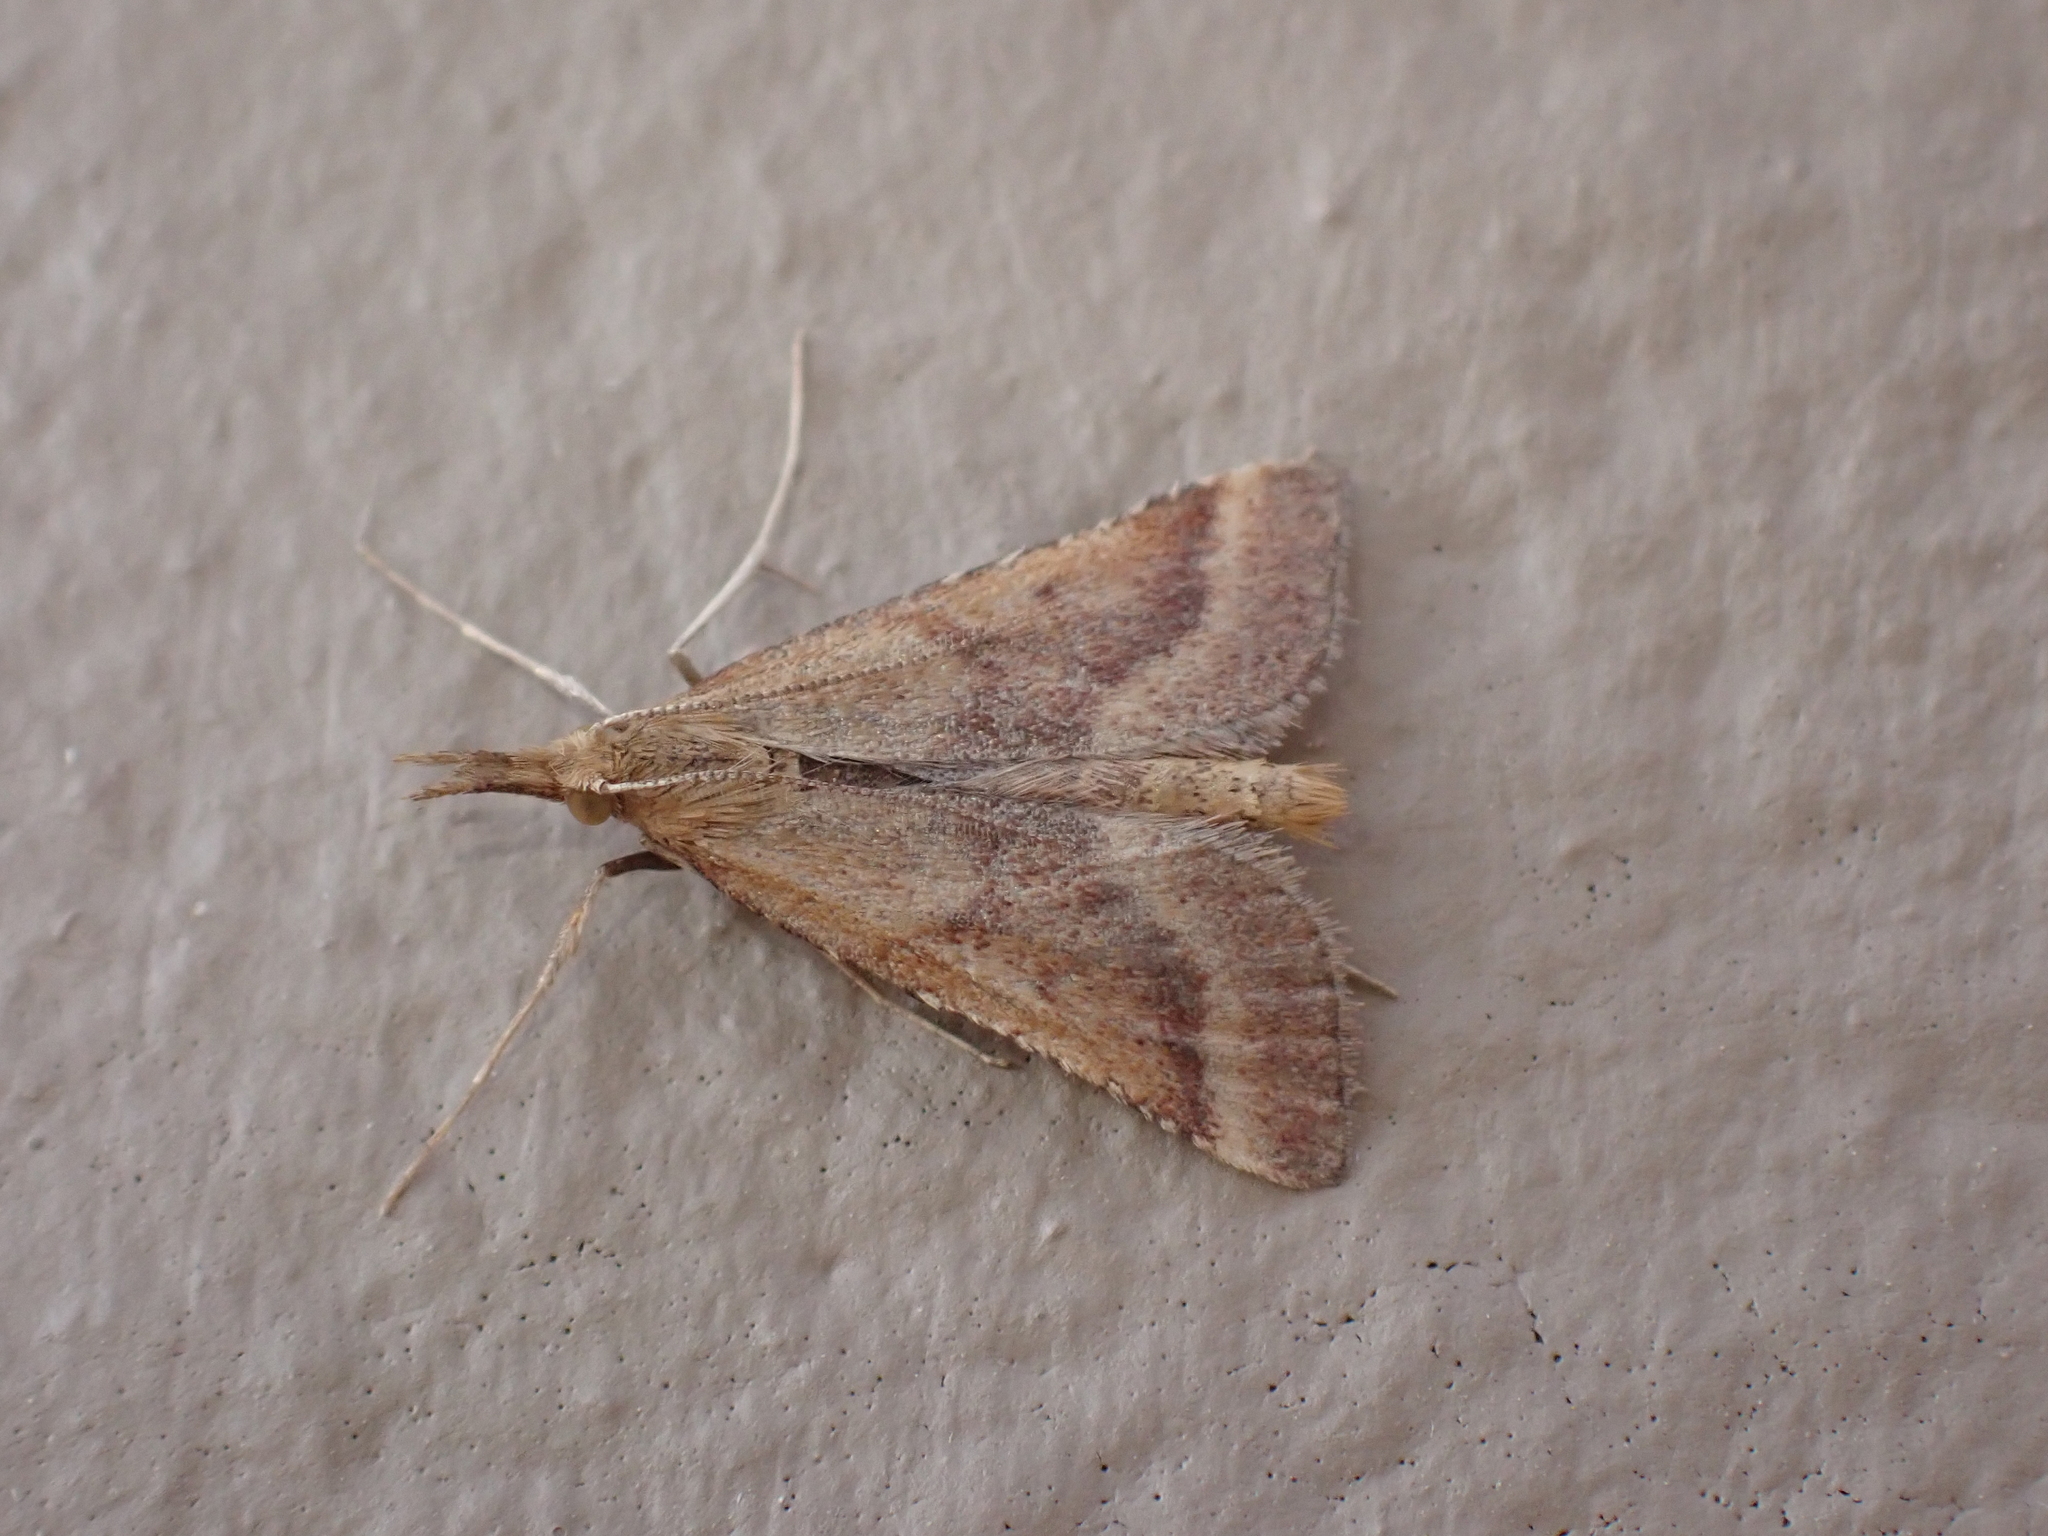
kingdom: Animalia
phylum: Arthropoda
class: Insecta
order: Lepidoptera
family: Pyralidae
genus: Synaphe
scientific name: Synaphe punctalis
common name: Long-legged tabby
